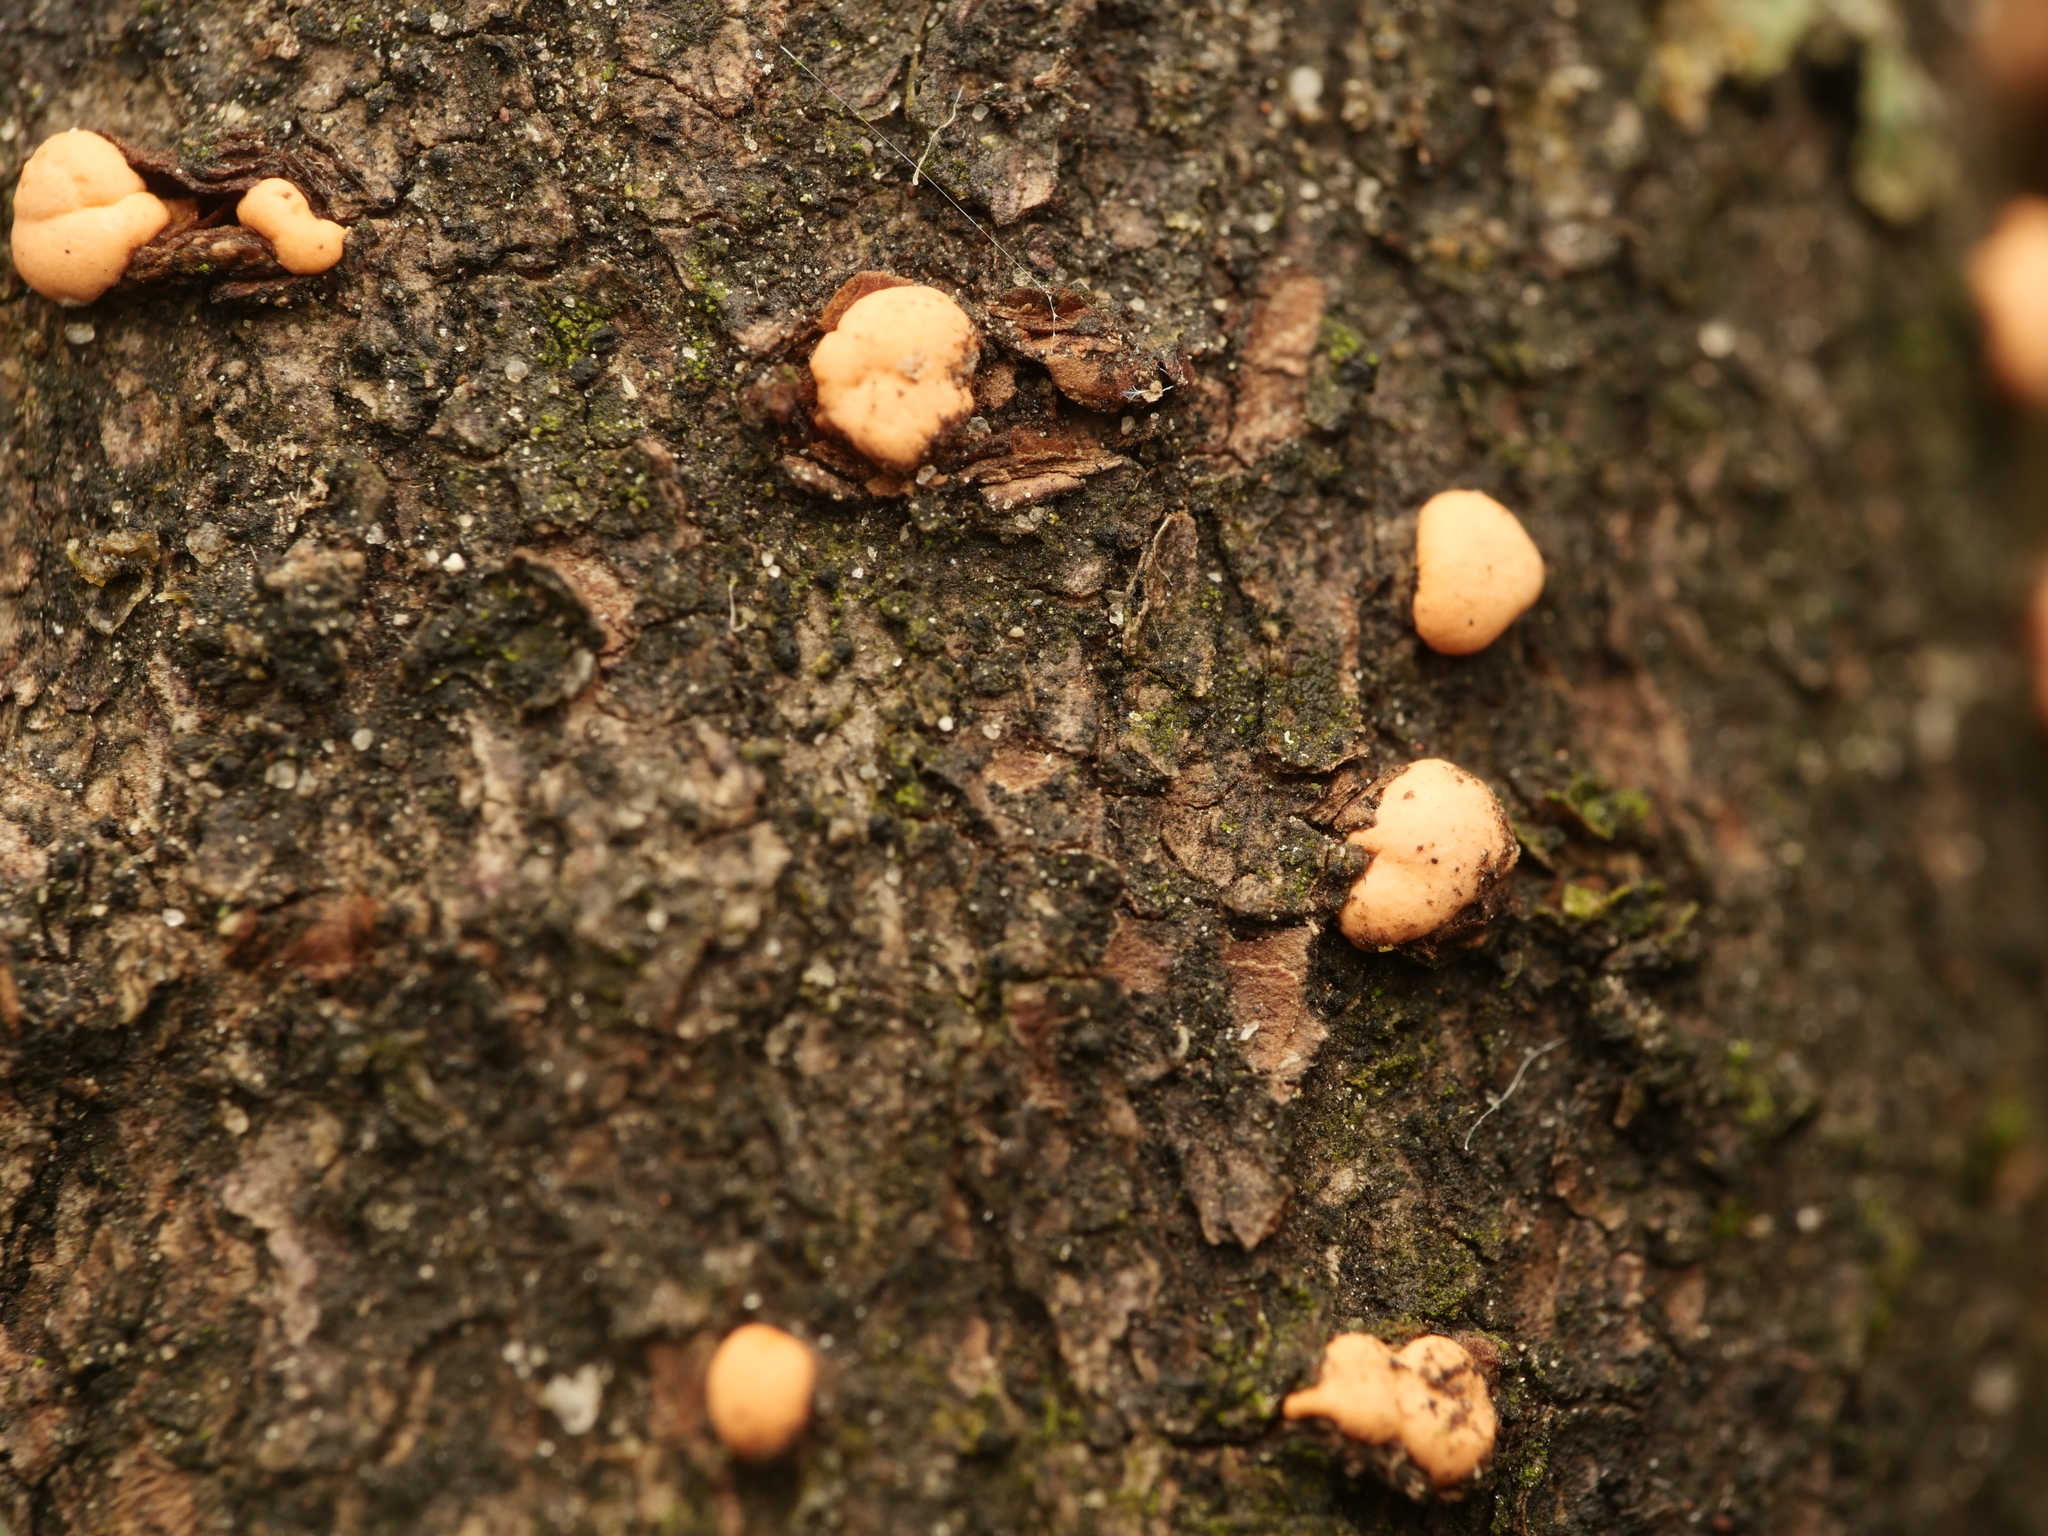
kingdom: Fungi
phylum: Ascomycota
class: Sordariomycetes
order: Hypocreales
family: Nectriaceae
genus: Nectria
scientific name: Nectria cinnabarina
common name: Coral spot
